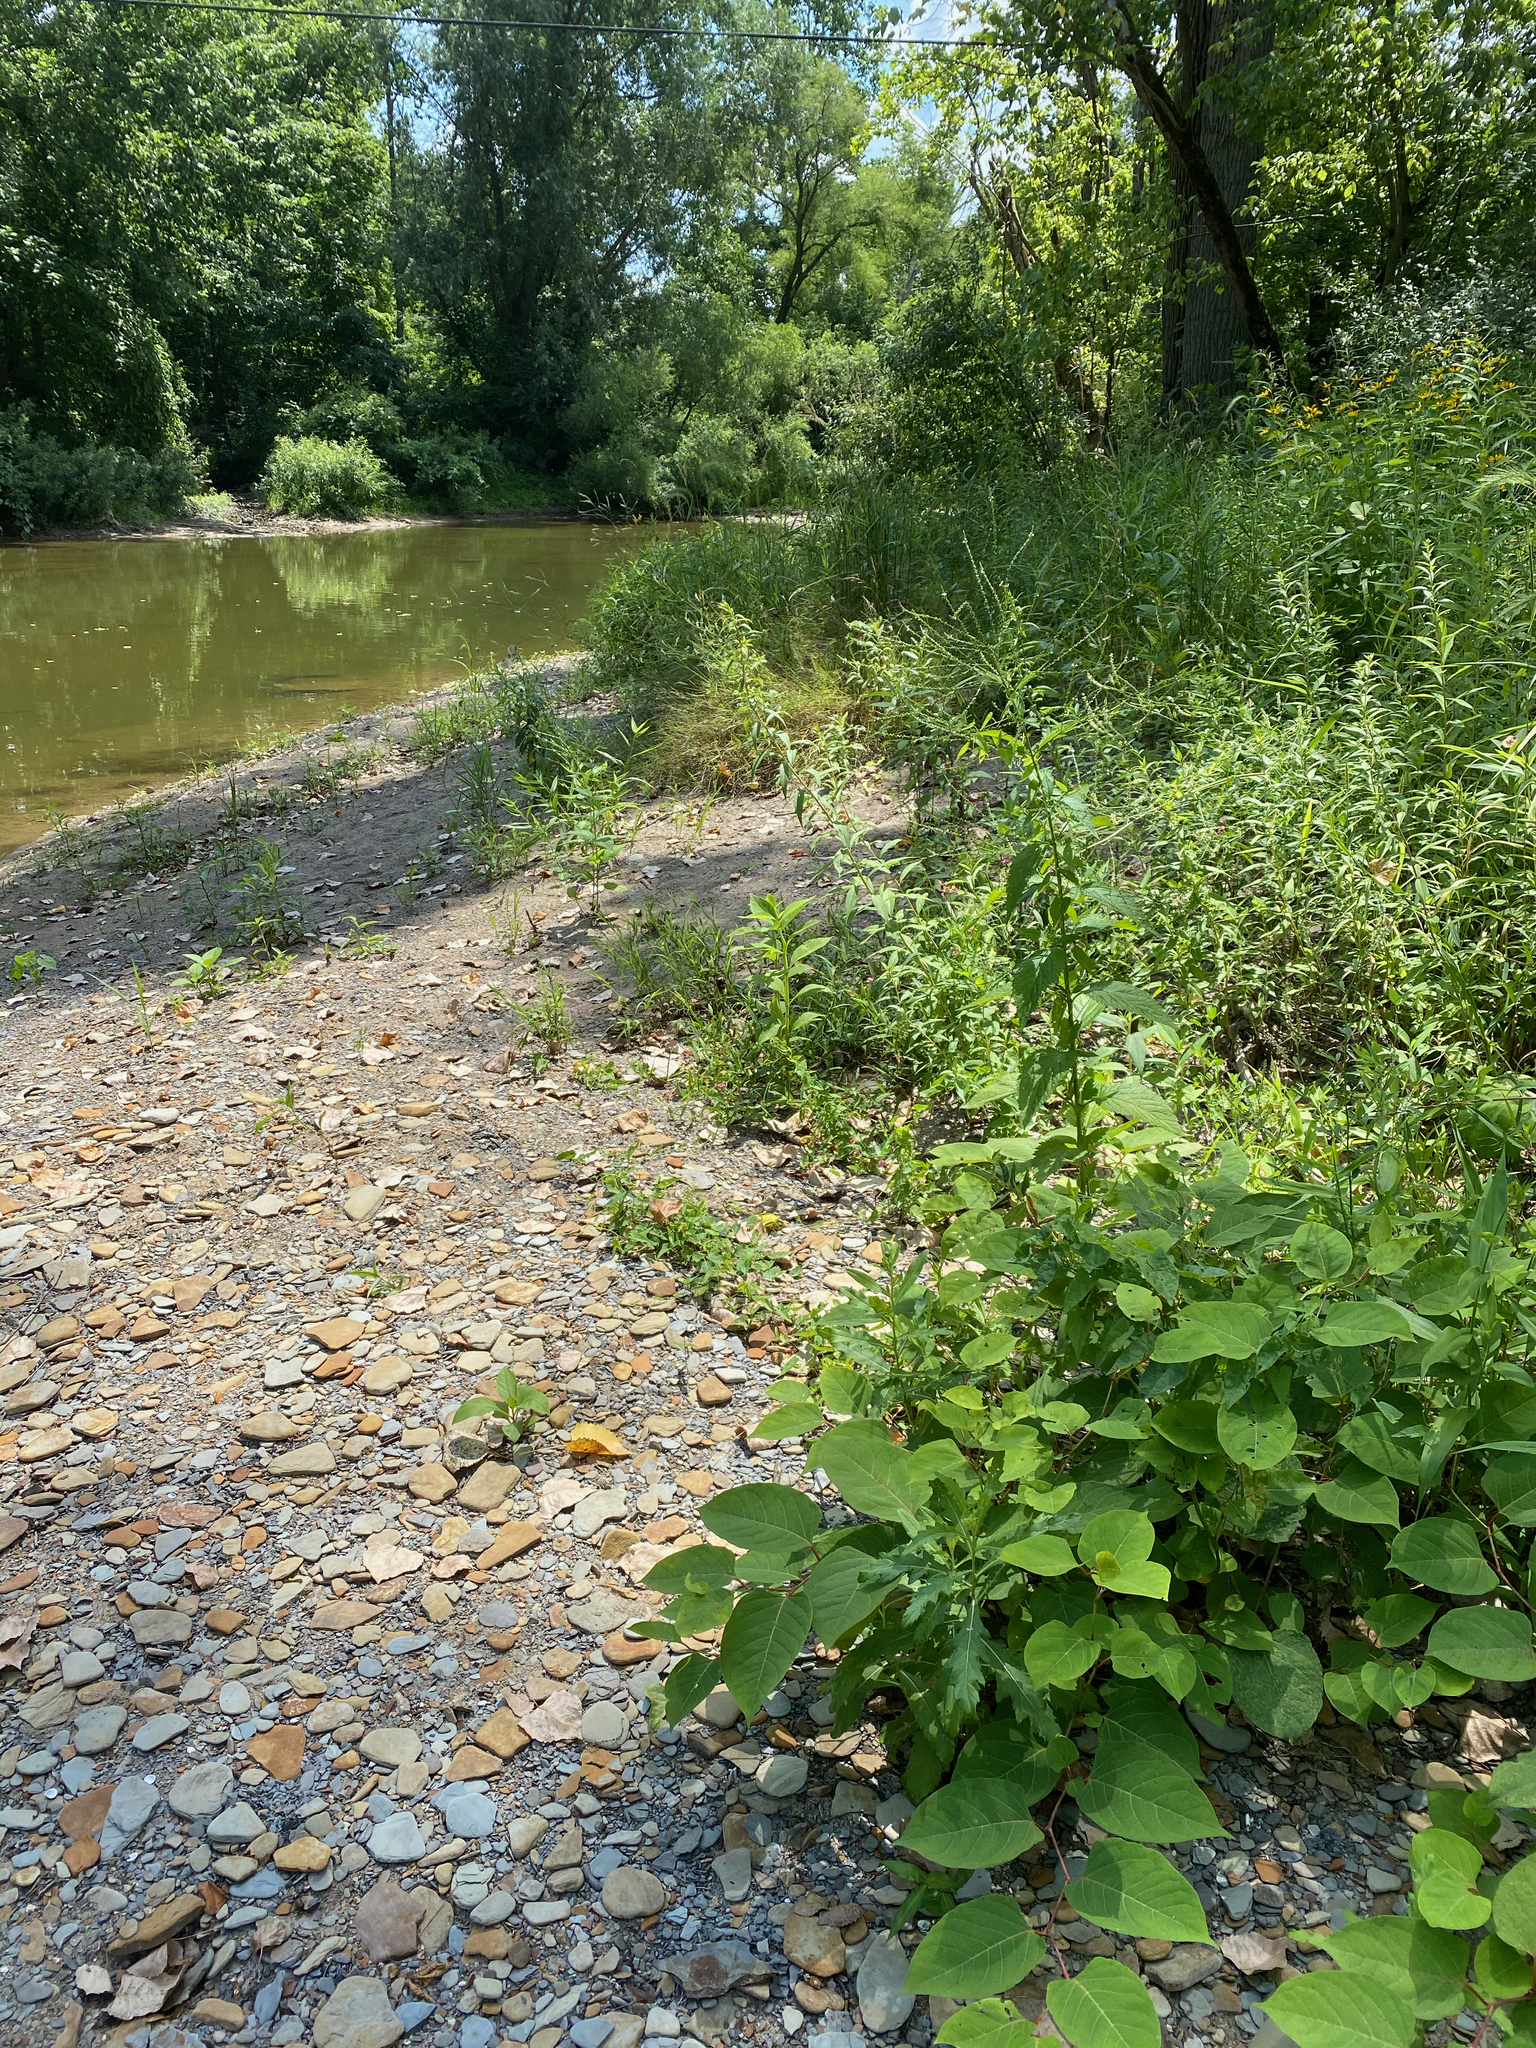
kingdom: Animalia
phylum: Arthropoda
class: Insecta
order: Hymenoptera
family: Andrenidae
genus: Calliopsis
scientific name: Calliopsis andreniformis
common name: Eastern calliopsis bee
